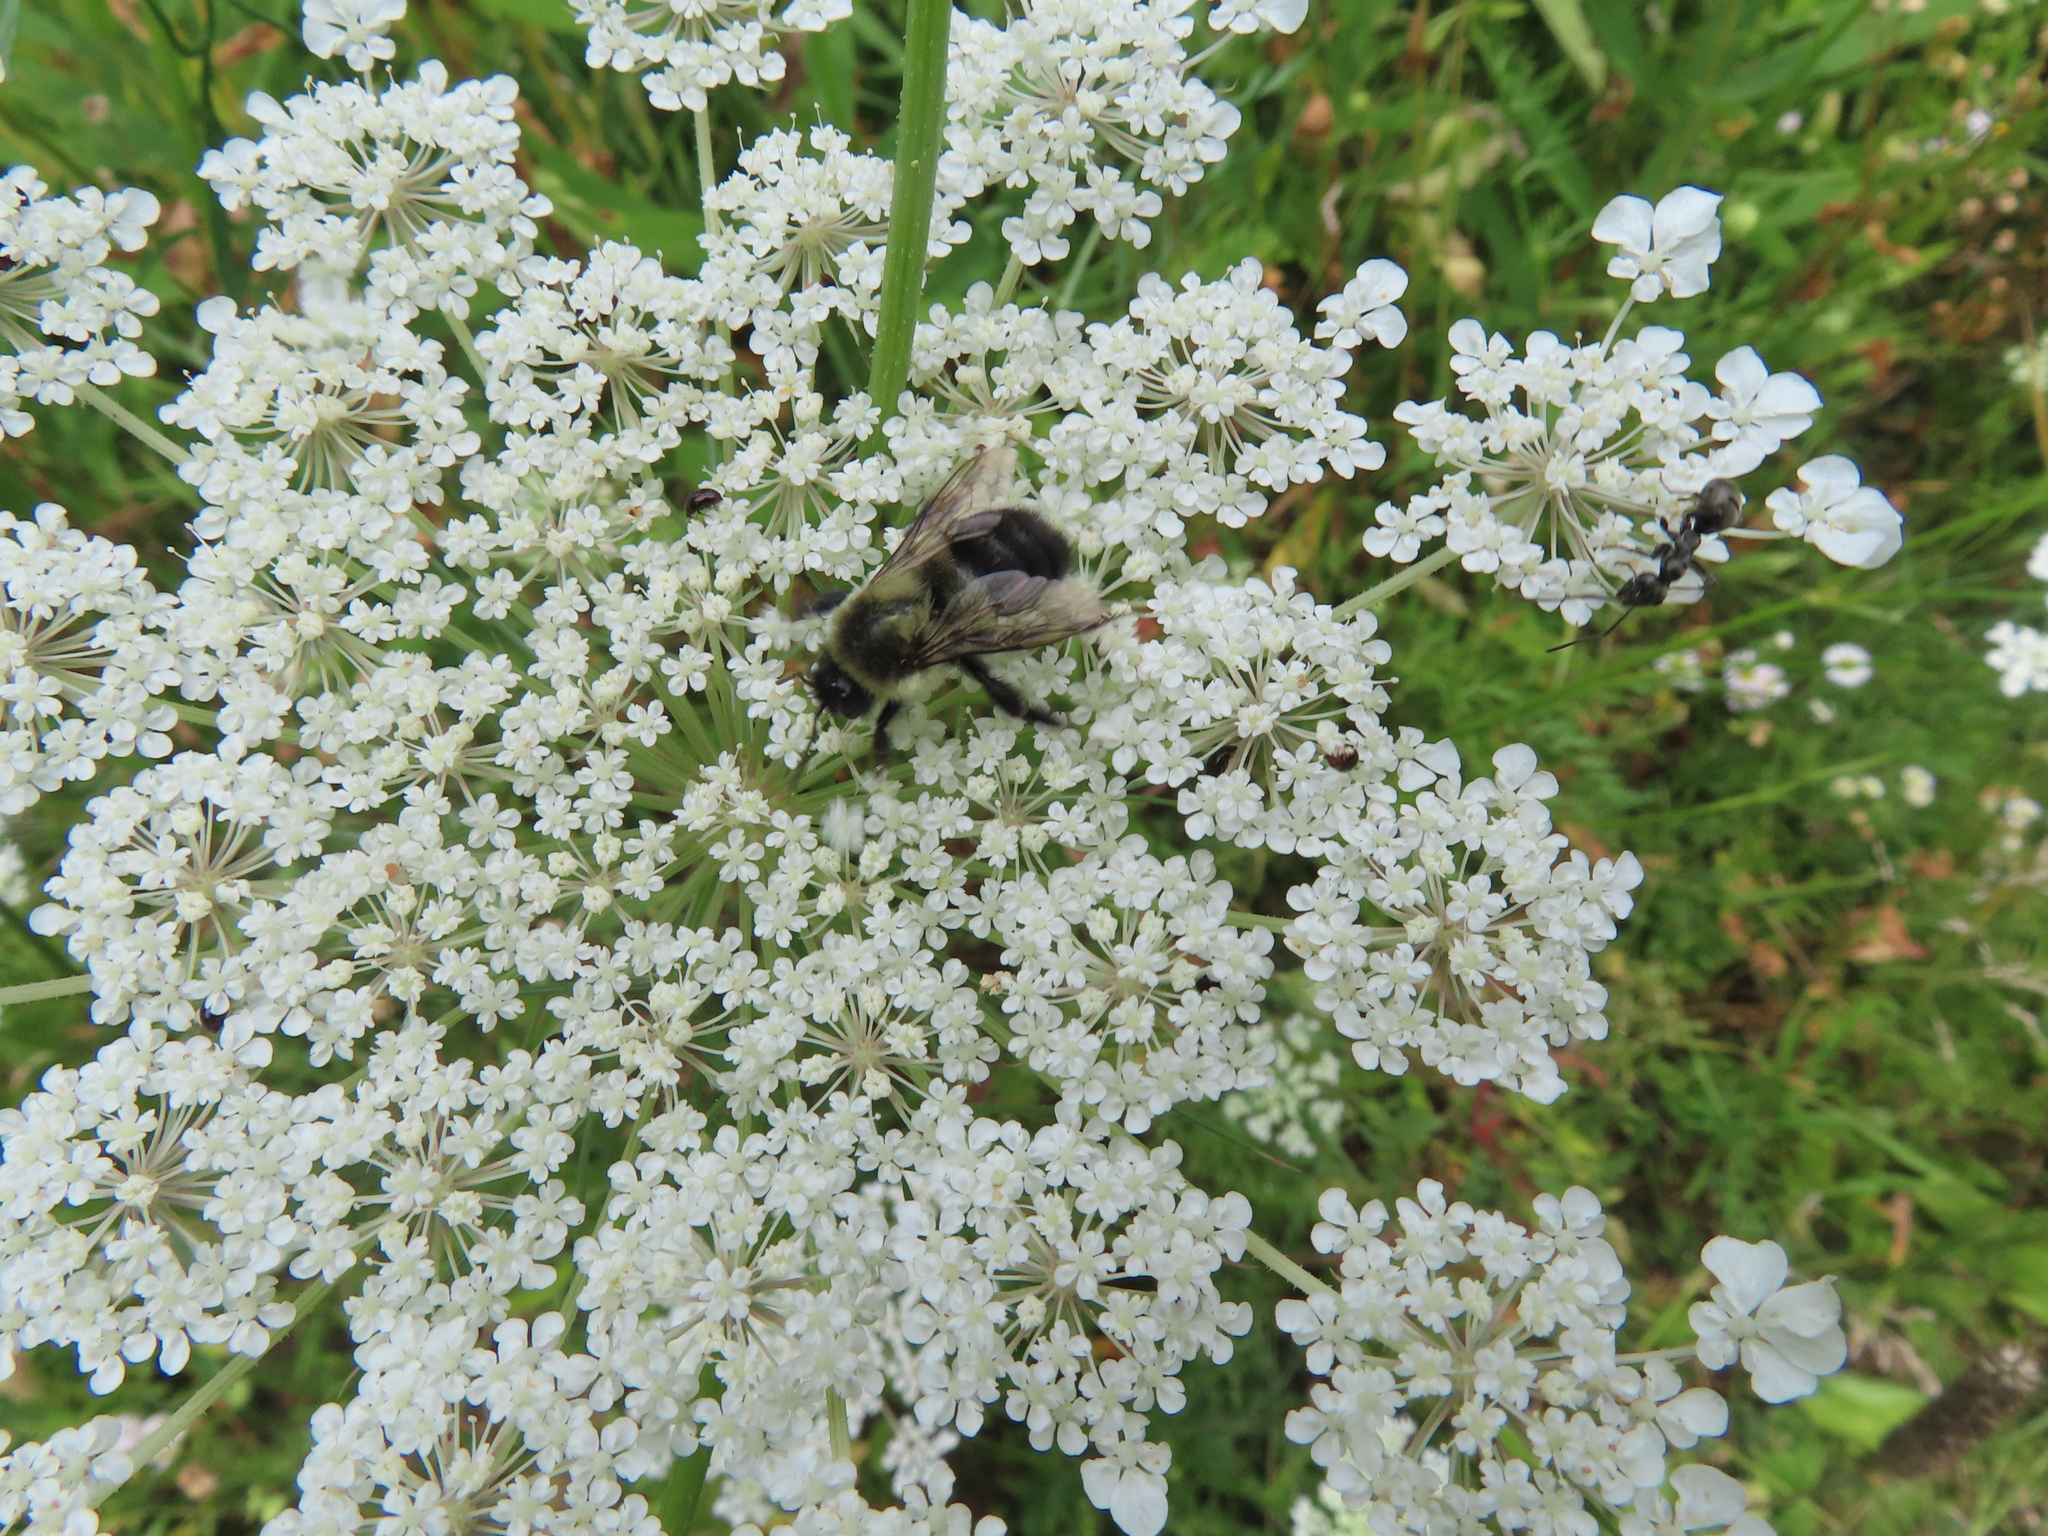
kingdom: Animalia
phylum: Arthropoda
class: Insecta
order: Hymenoptera
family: Apidae
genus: Bombus
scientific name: Bombus impatiens
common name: Common eastern bumble bee
